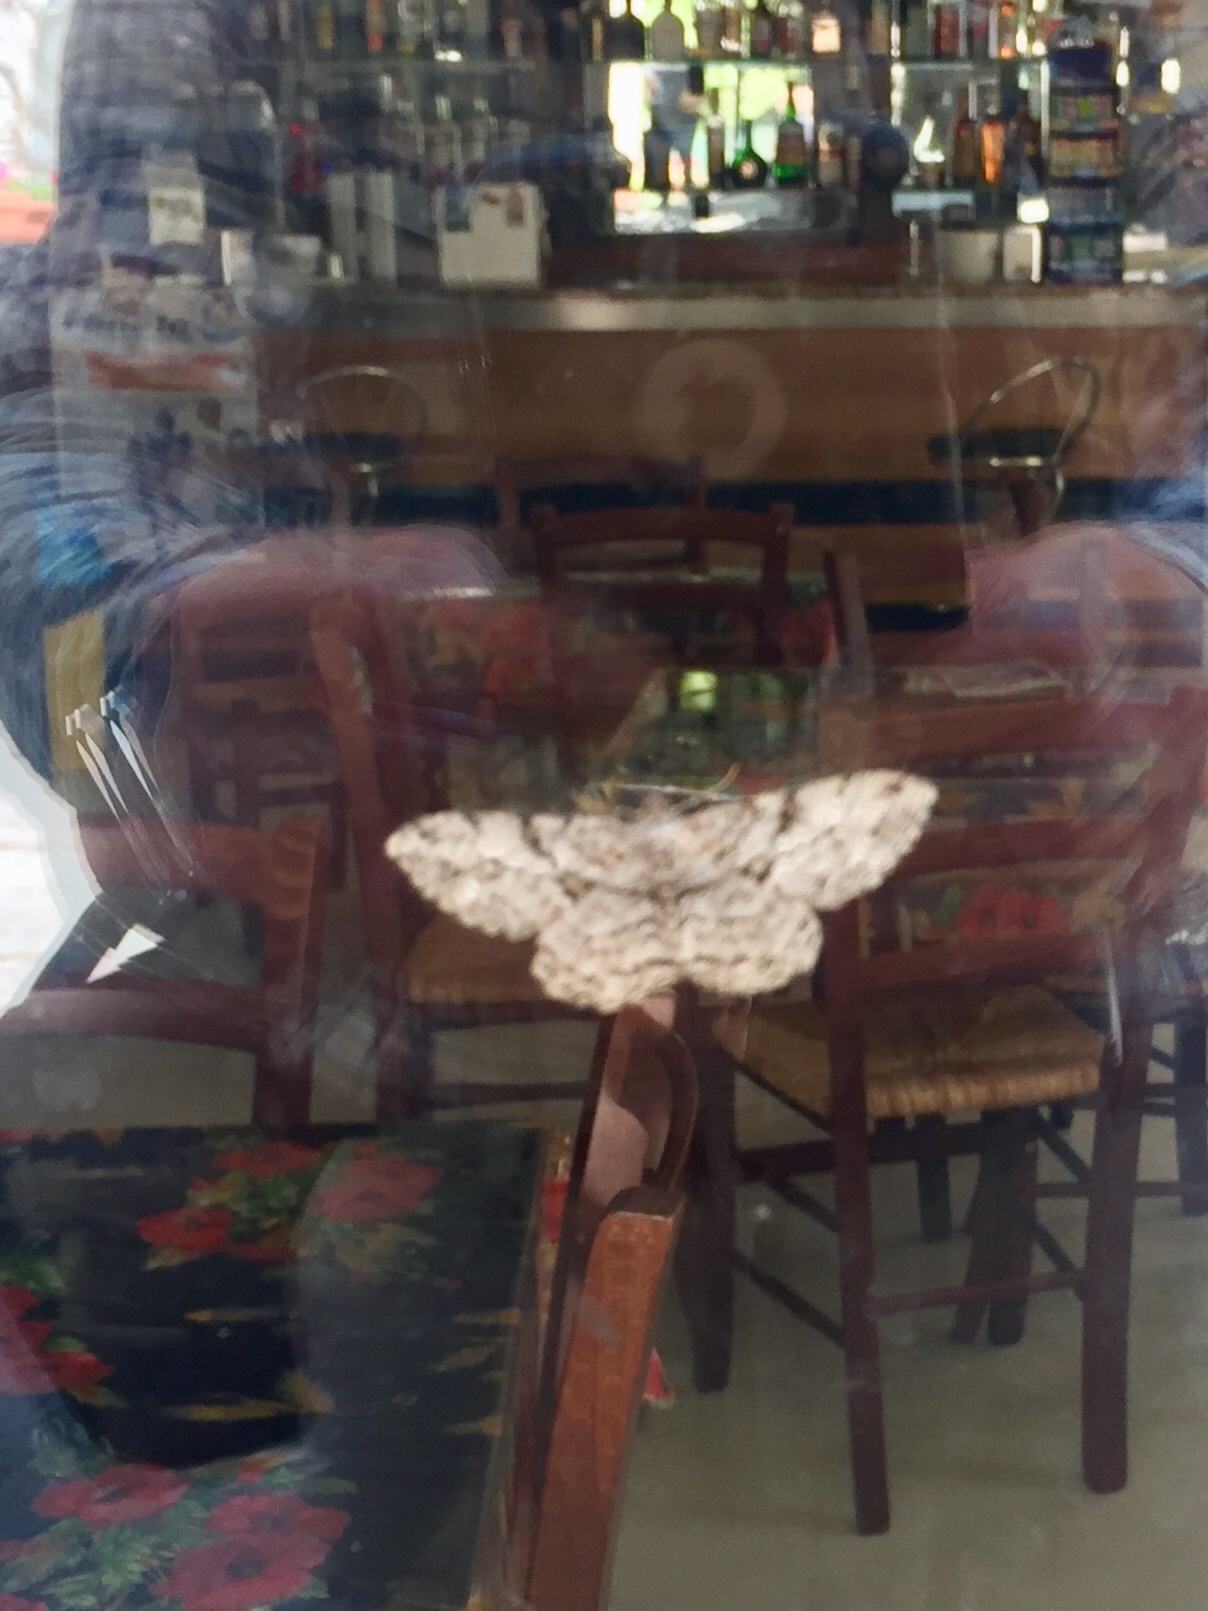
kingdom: Animalia
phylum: Arthropoda
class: Insecta
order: Lepidoptera
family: Geometridae
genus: Peribatodes
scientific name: Peribatodes rhomboidaria
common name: Willow beauty
